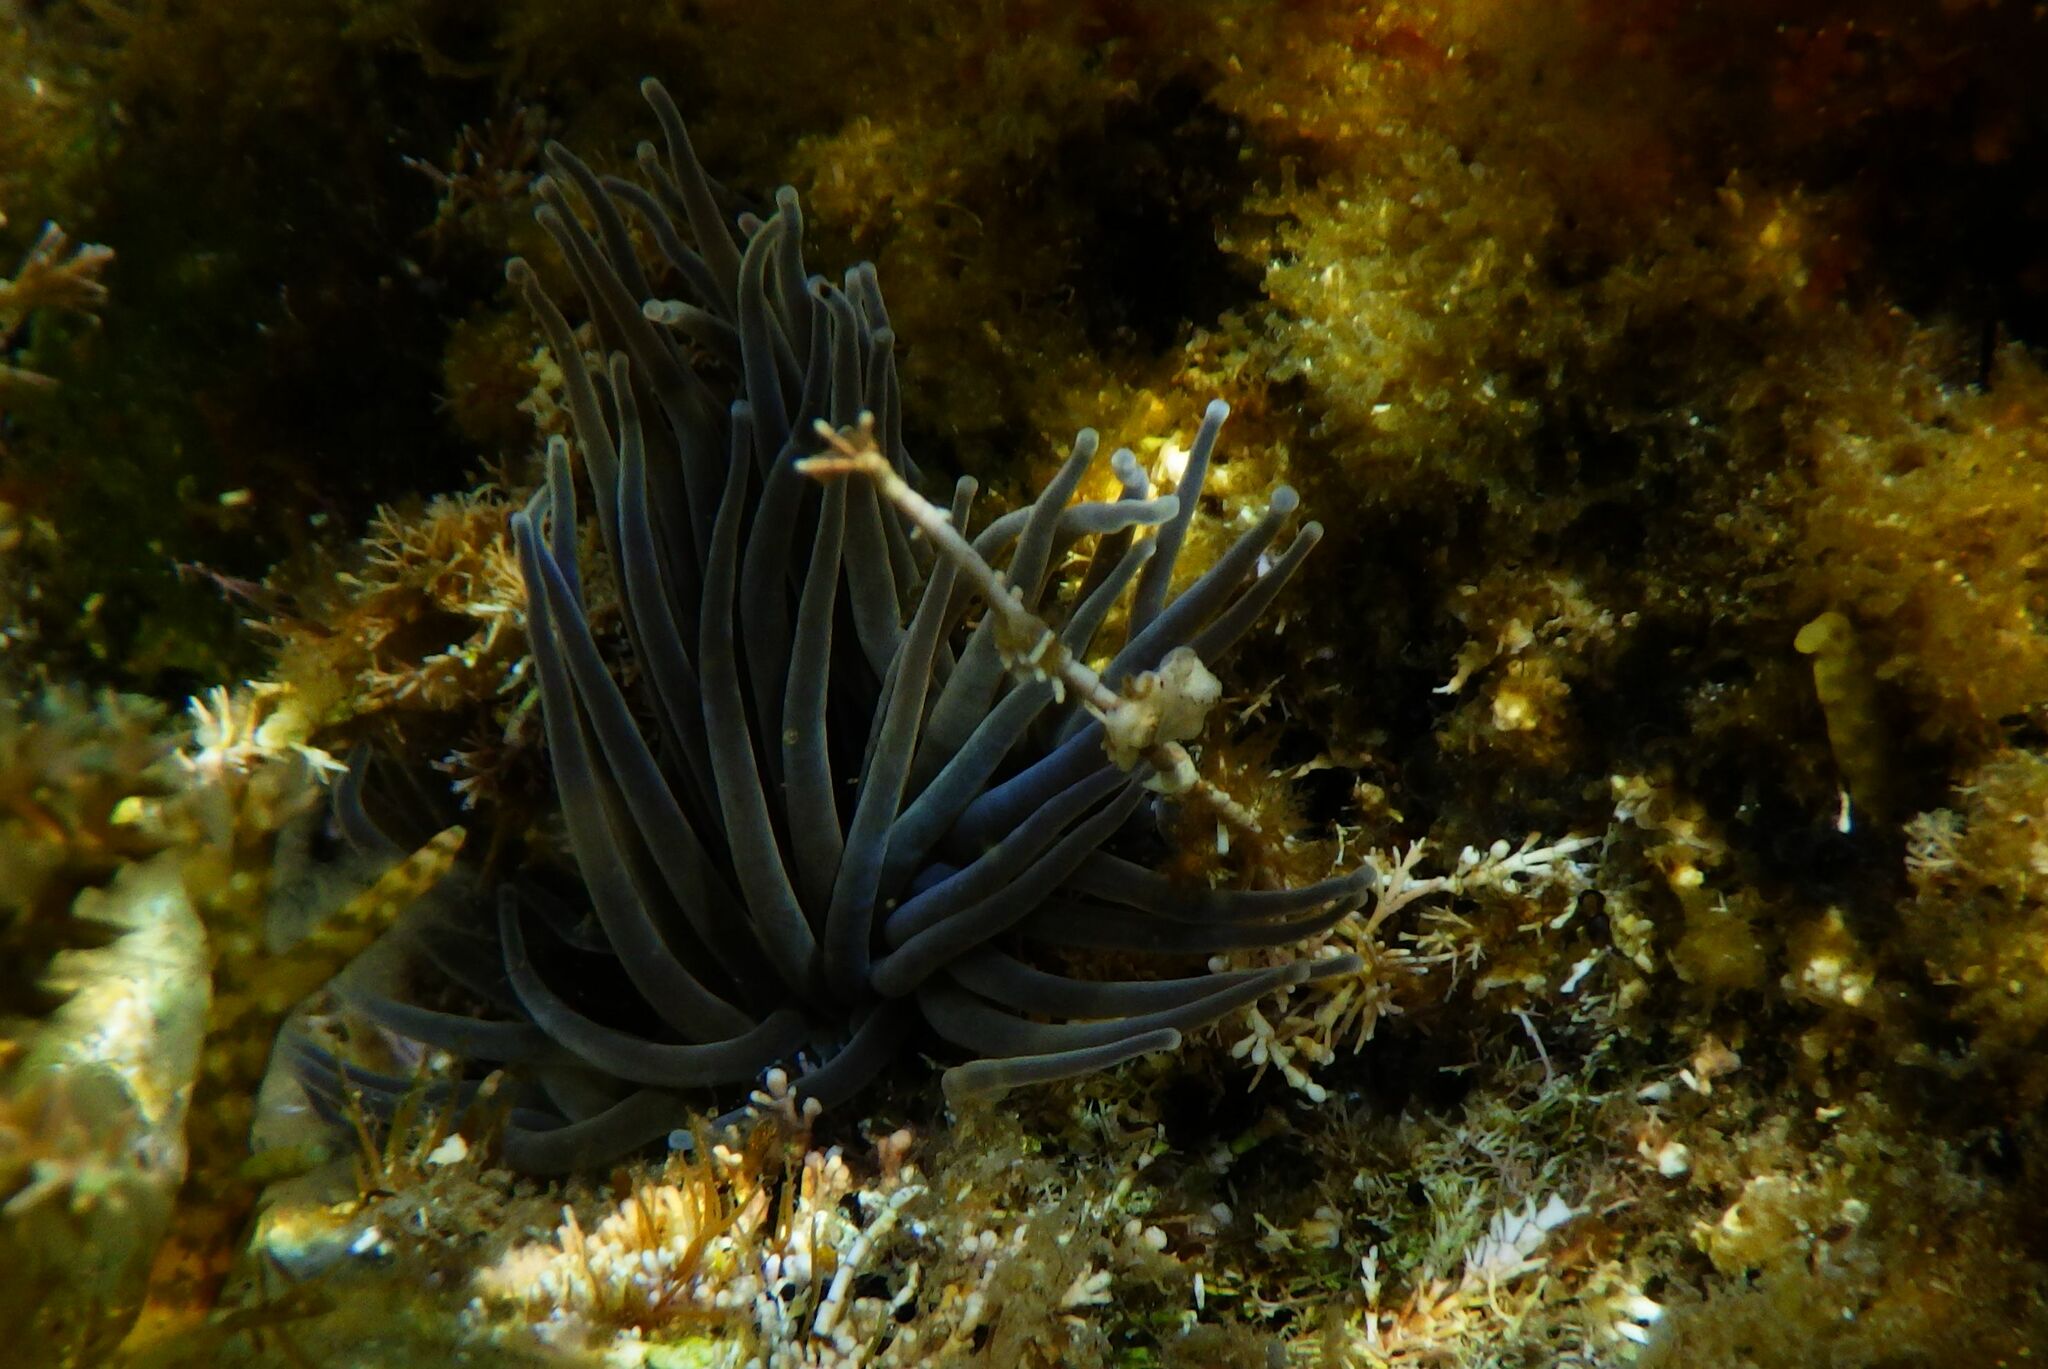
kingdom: Animalia
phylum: Cnidaria
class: Anthozoa
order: Actiniaria
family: Actiniidae
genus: Anemonia
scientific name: Anemonia viridis
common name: Snakelocks anemone
